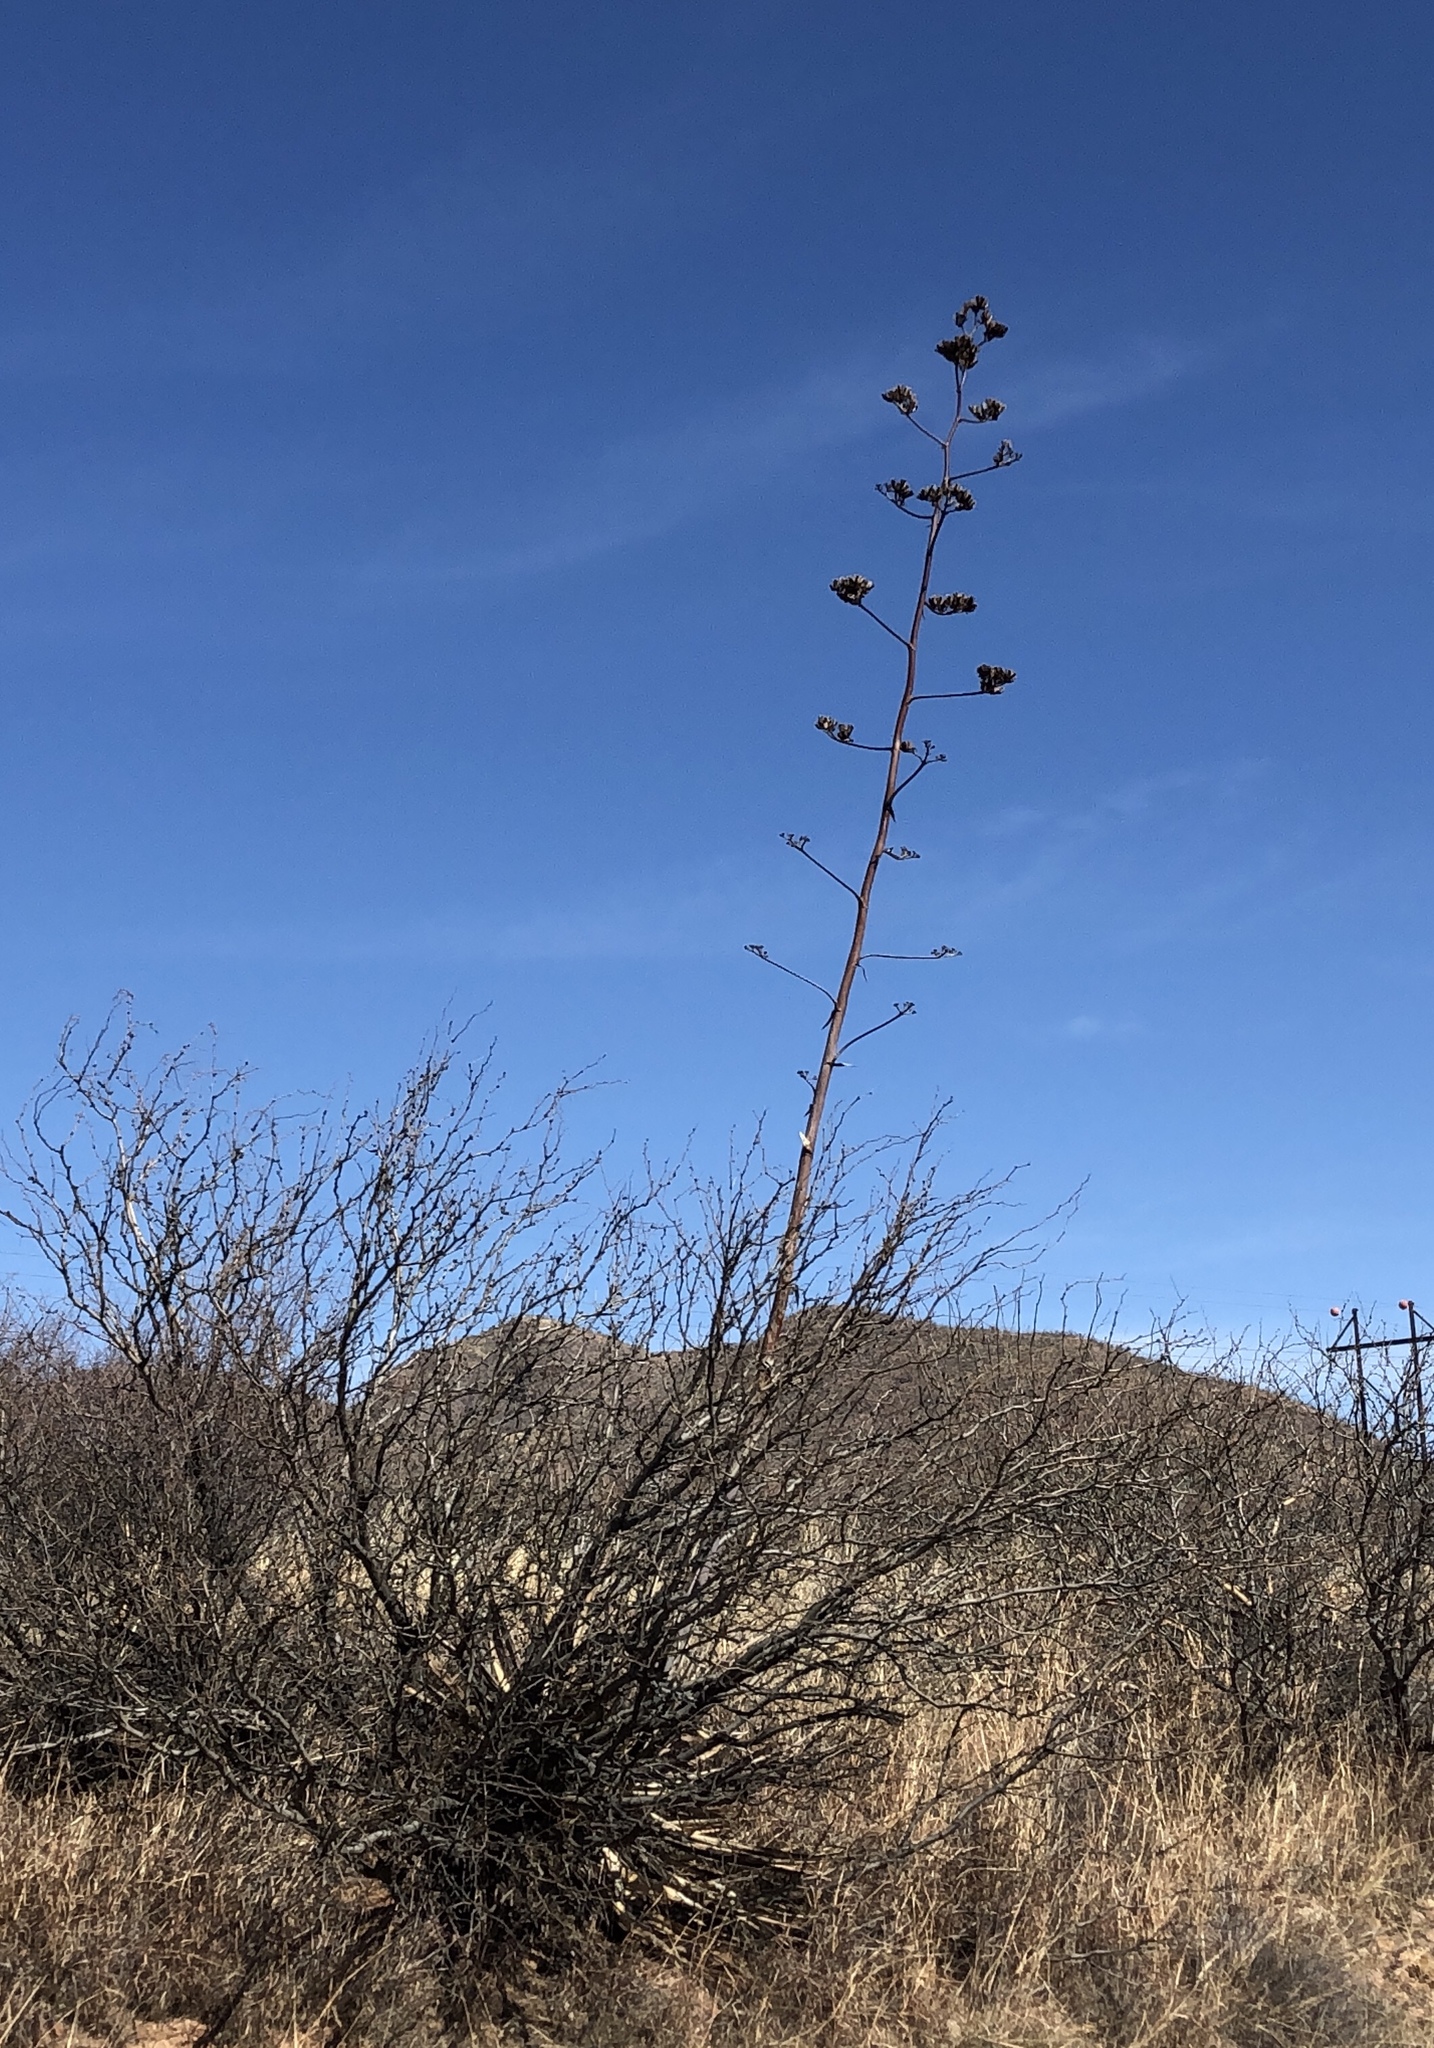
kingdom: Plantae
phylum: Tracheophyta
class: Liliopsida
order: Asparagales
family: Asparagaceae
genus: Agave
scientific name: Agave palmeri
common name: Palmer agave
